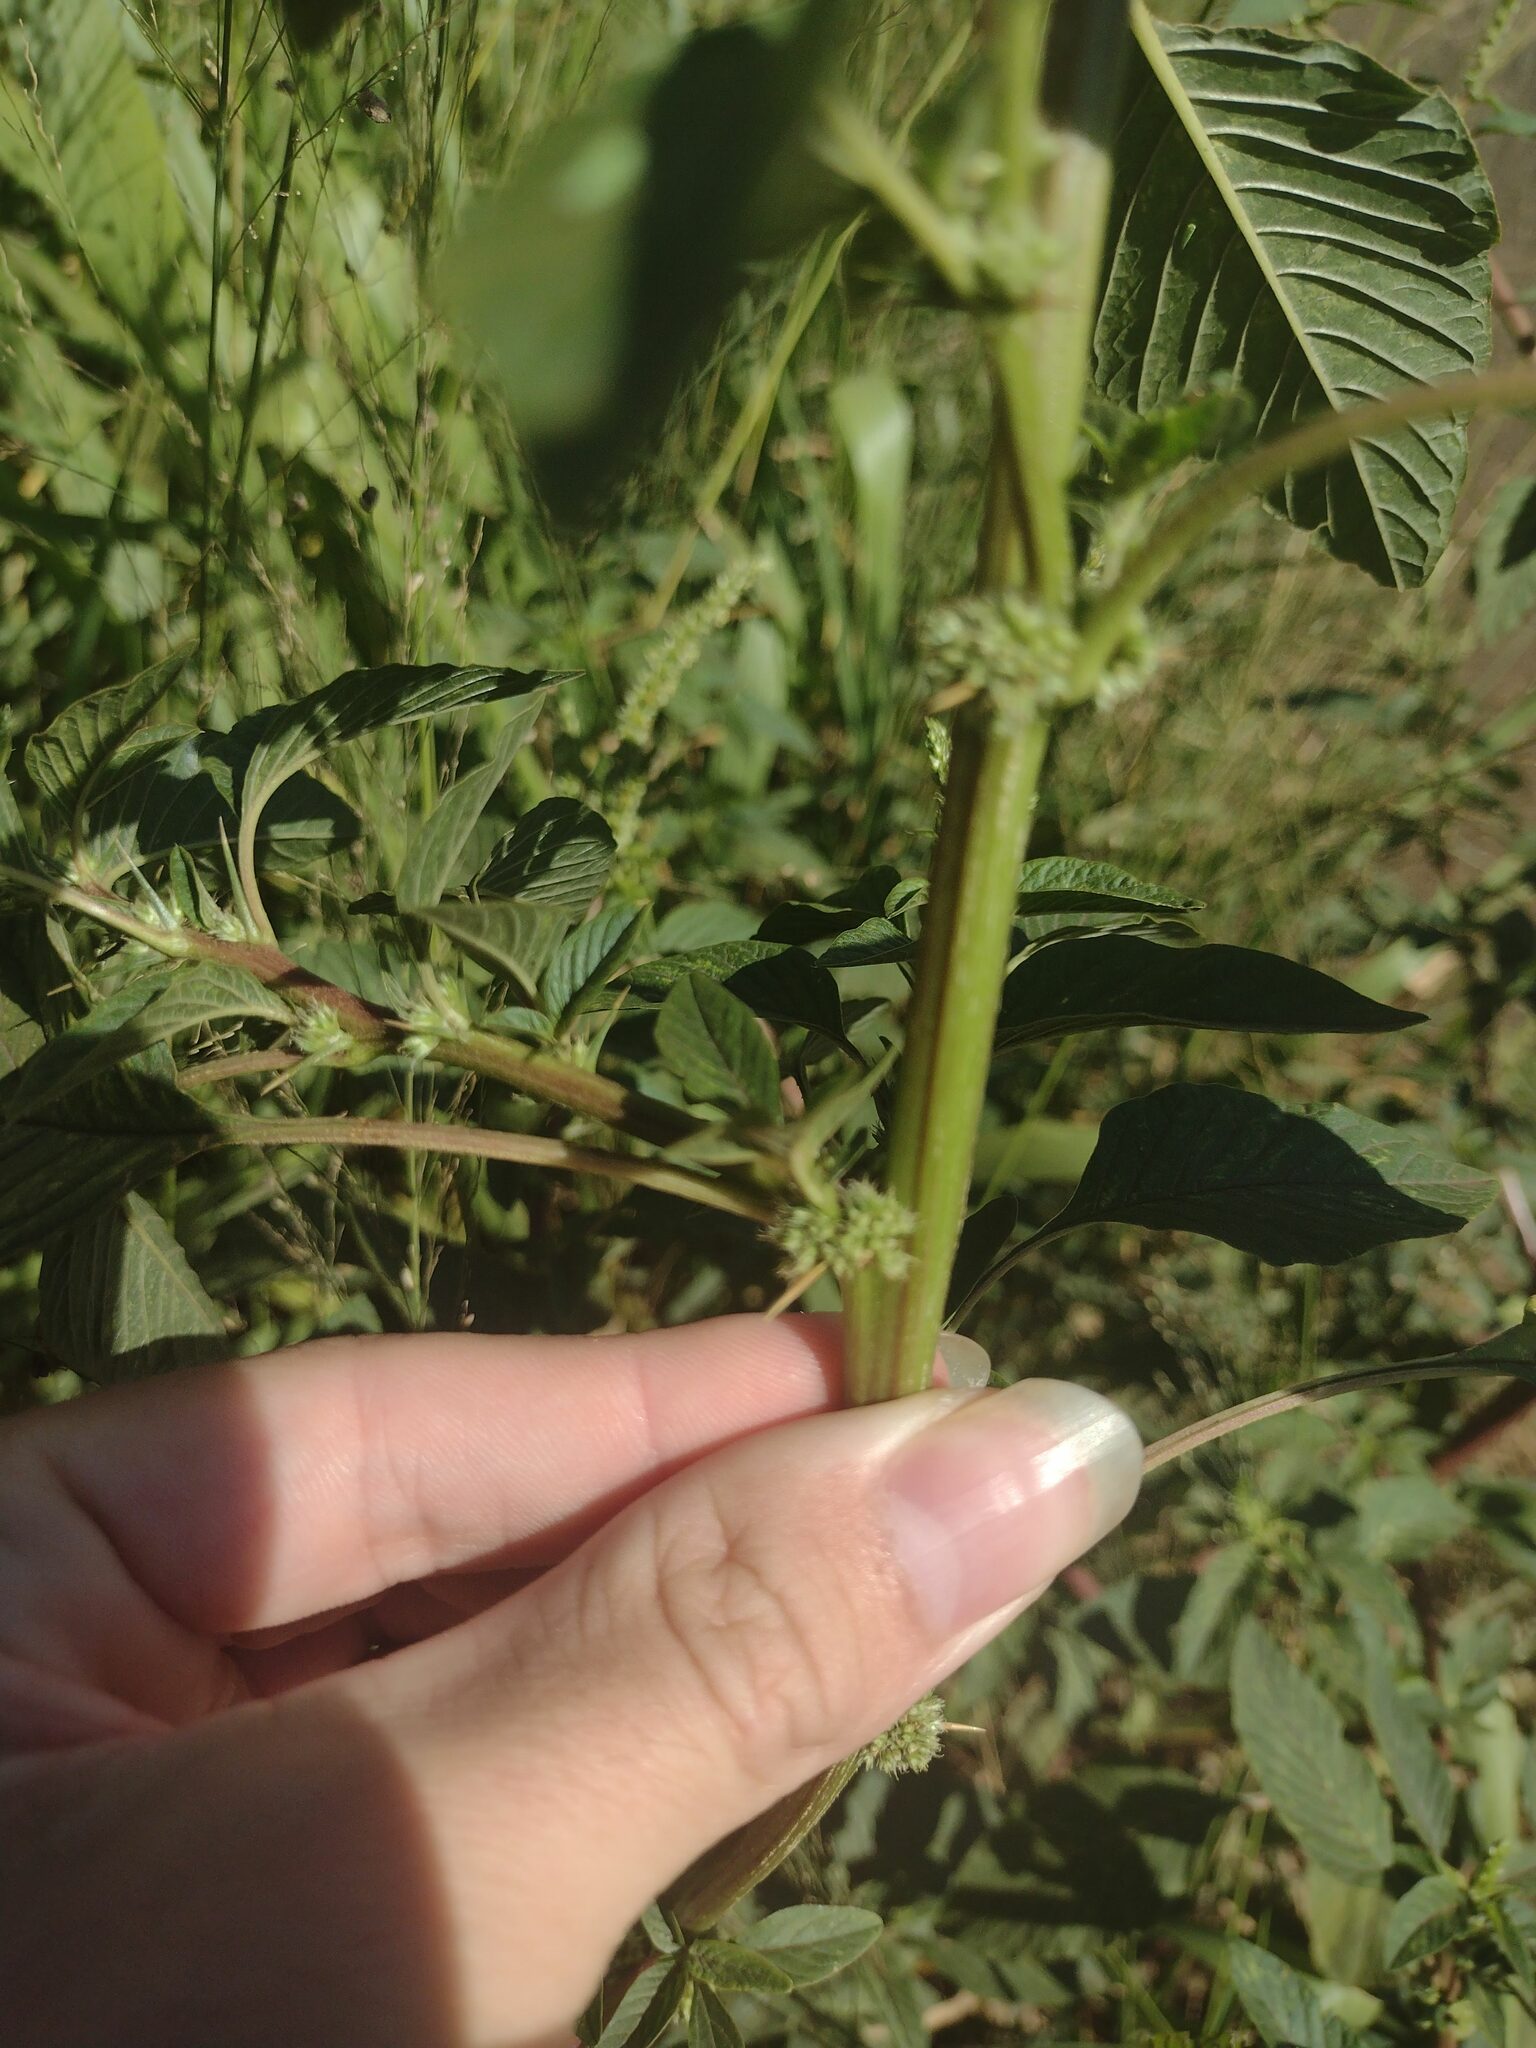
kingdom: Plantae
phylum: Tracheophyta
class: Magnoliopsida
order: Caryophyllales
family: Amaranthaceae
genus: Amaranthus
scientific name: Amaranthus spinosus
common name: Spiny amaranth
